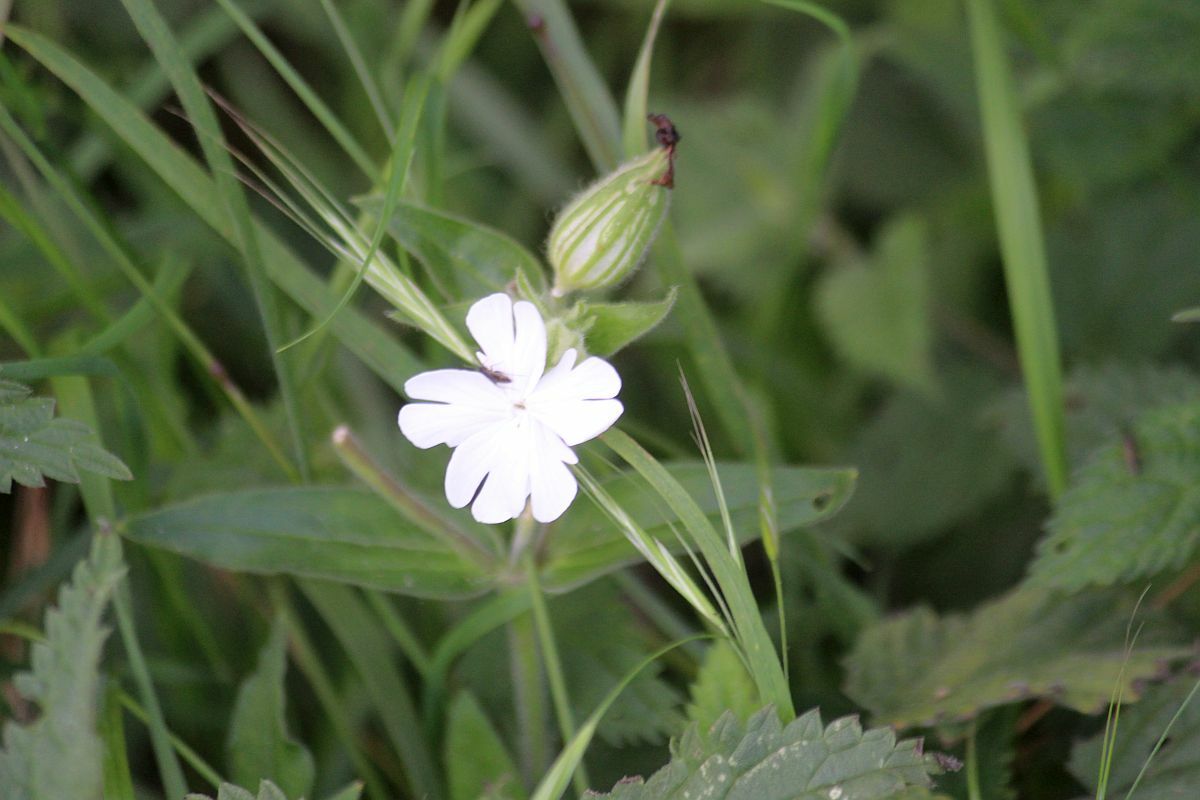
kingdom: Plantae
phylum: Tracheophyta
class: Magnoliopsida
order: Caryophyllales
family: Caryophyllaceae
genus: Silene
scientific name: Silene latifolia
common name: White campion
